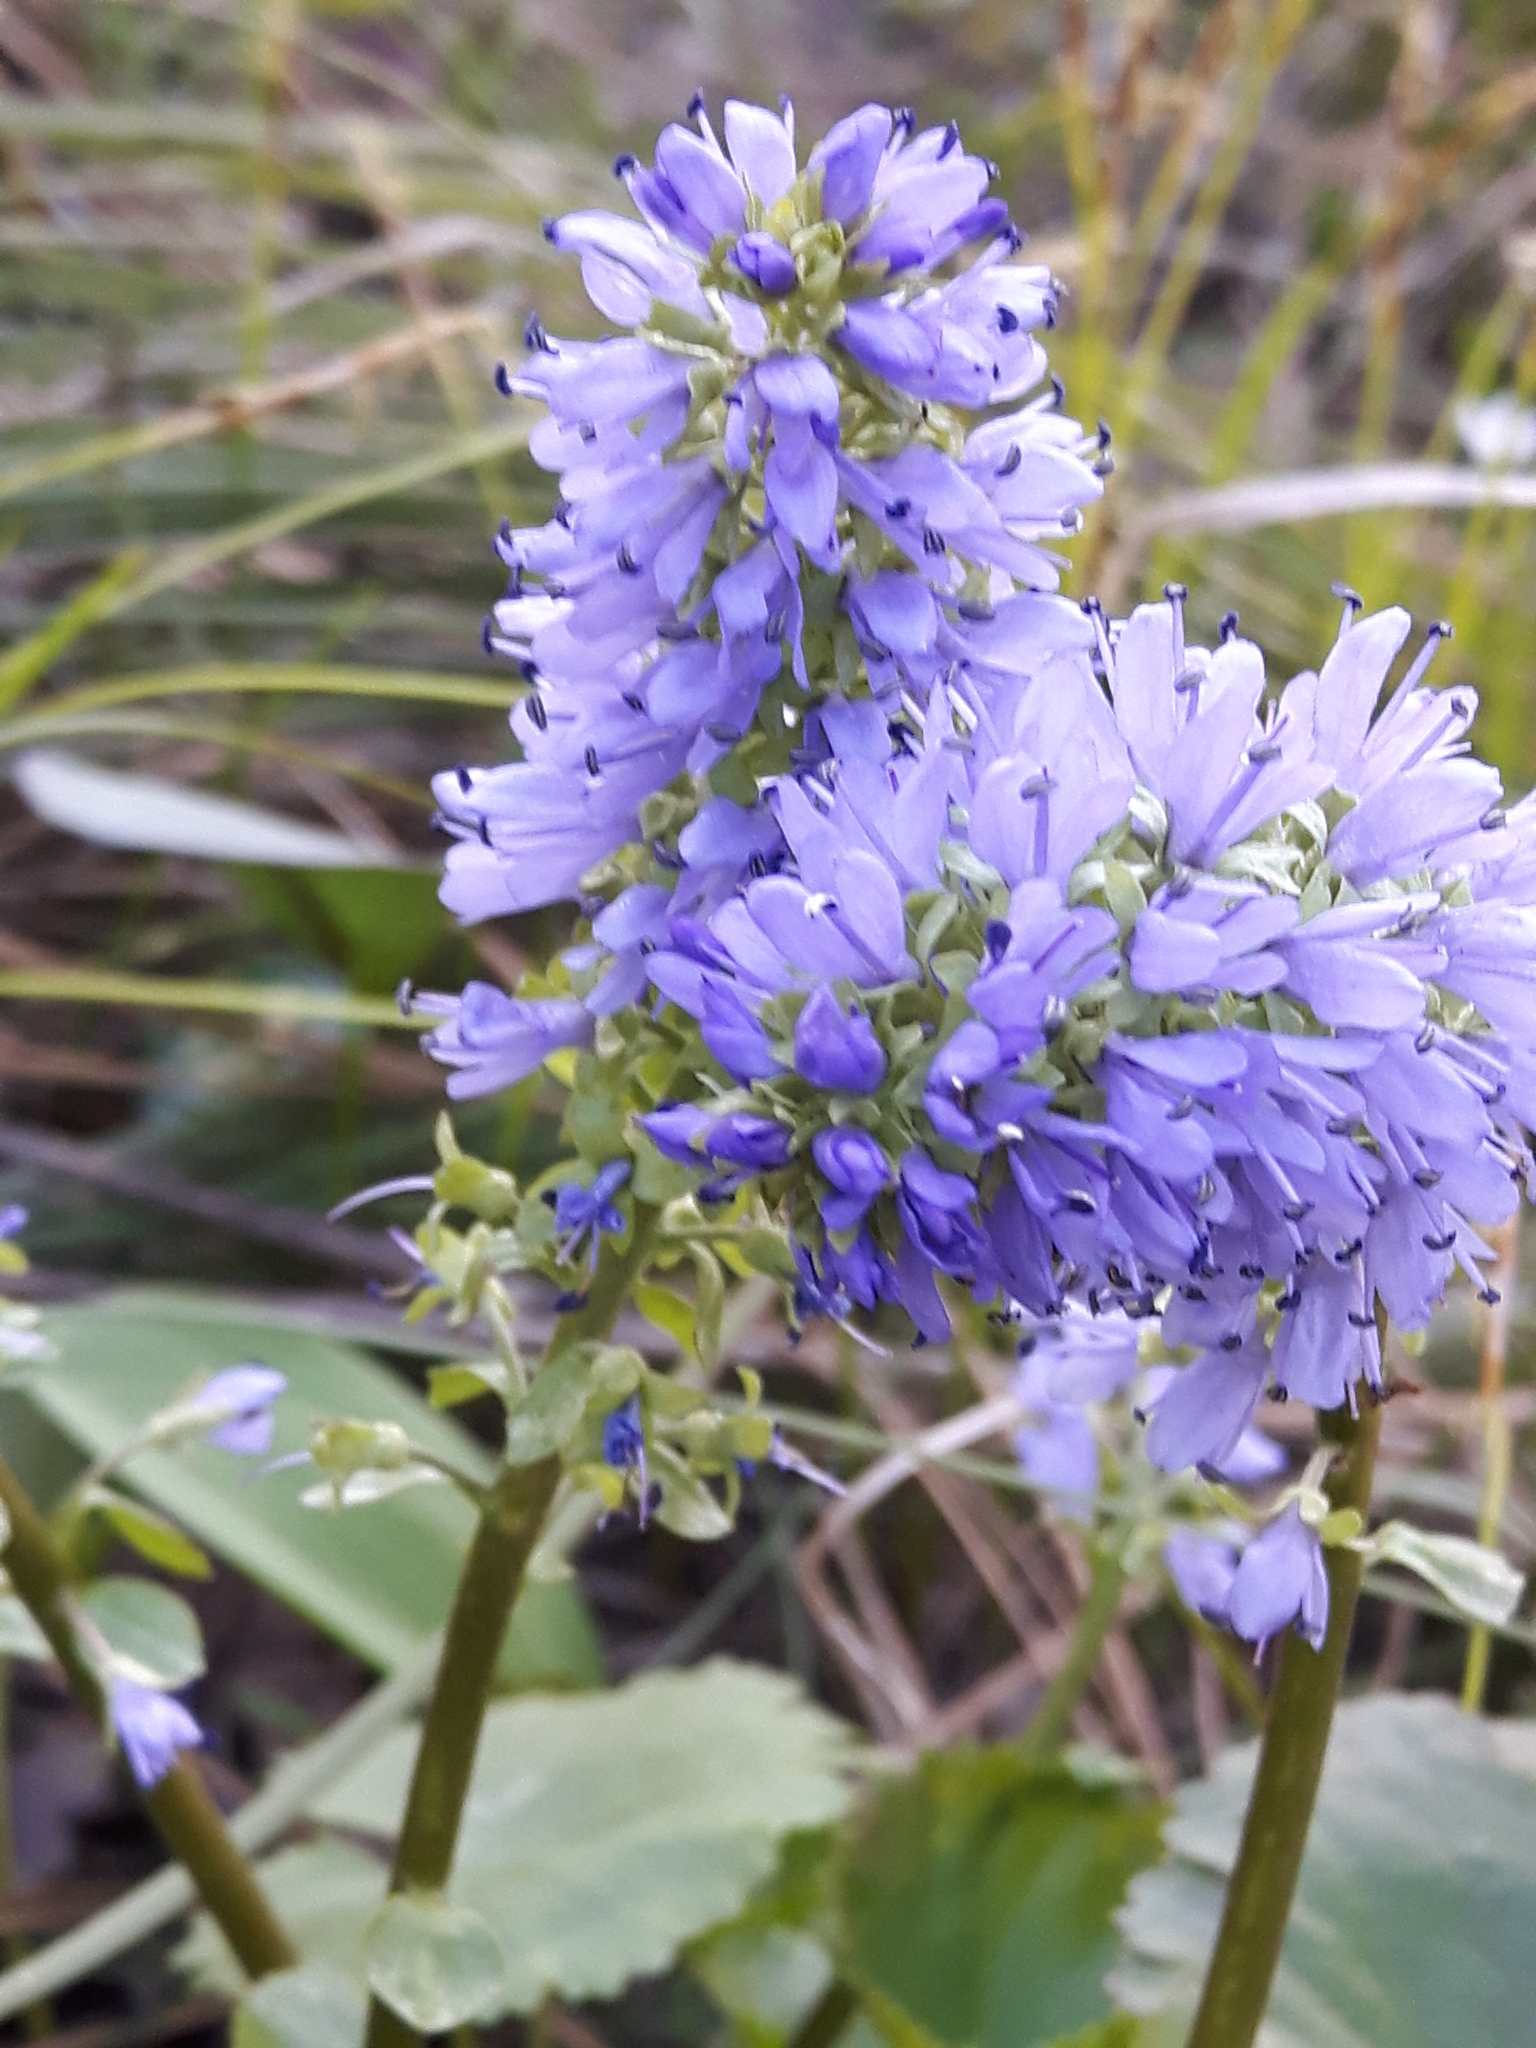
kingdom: Plantae
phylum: Tracheophyta
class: Magnoliopsida
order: Lamiales
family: Plantaginaceae
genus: Synthyris
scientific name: Synthyris missurica
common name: Kitten-tails
